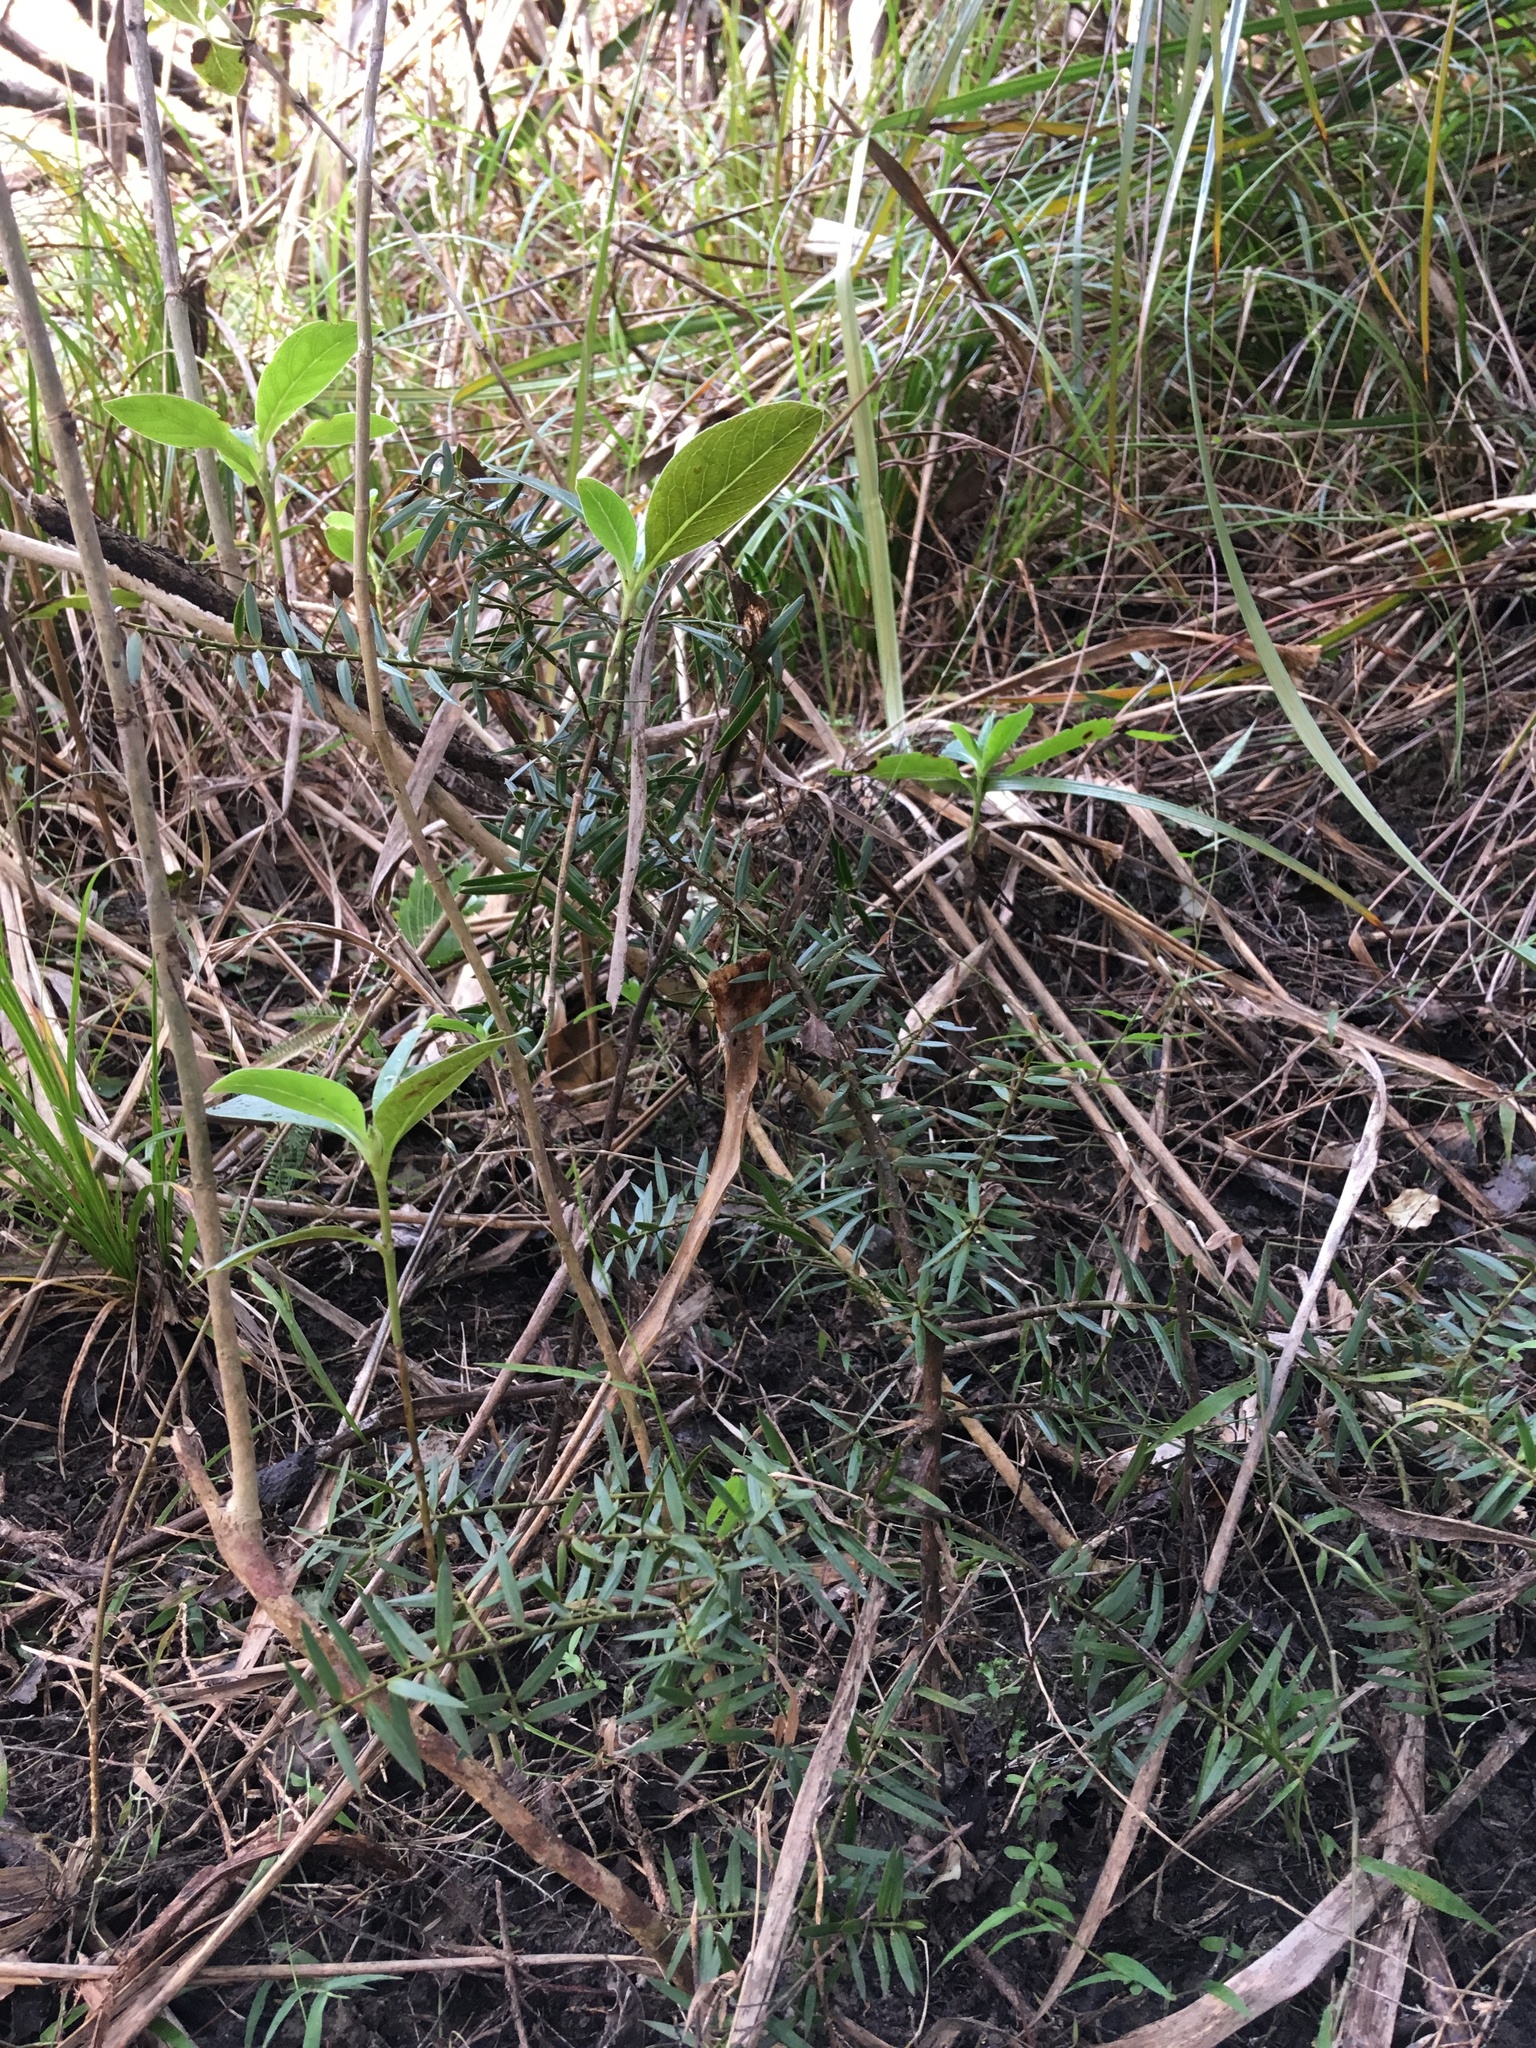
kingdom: Plantae
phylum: Tracheophyta
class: Pinopsida
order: Pinales
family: Podocarpaceae
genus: Podocarpus
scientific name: Podocarpus totara
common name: Totara
